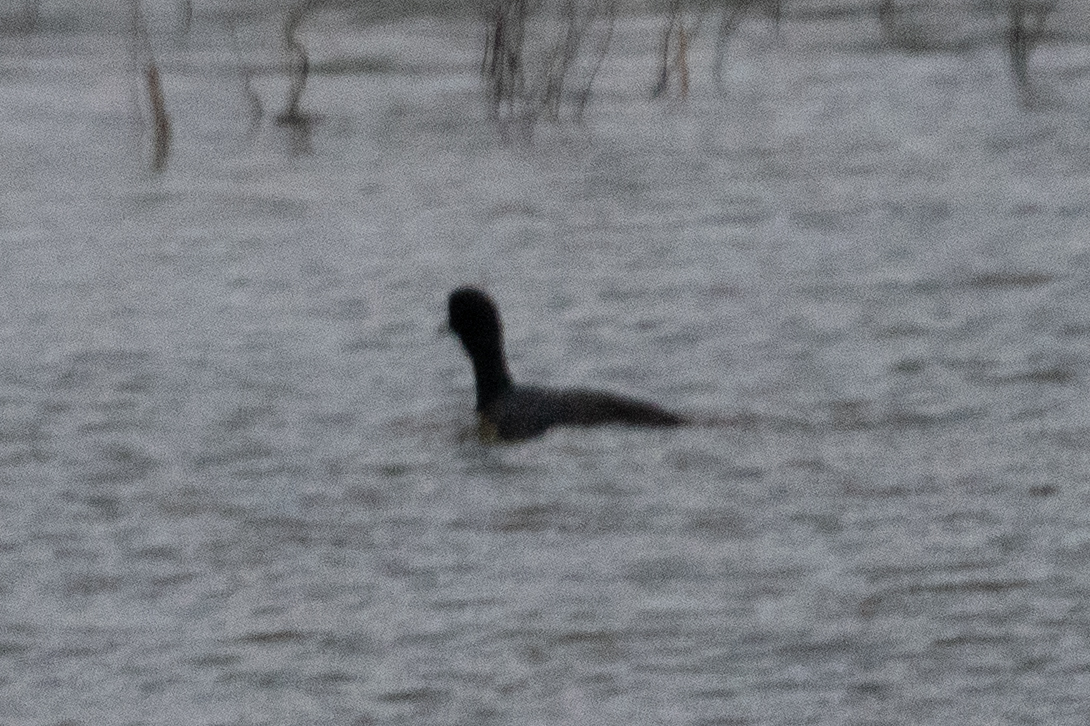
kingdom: Animalia
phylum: Chordata
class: Aves
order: Gruiformes
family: Rallidae
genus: Fulica
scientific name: Fulica americana
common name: American coot
